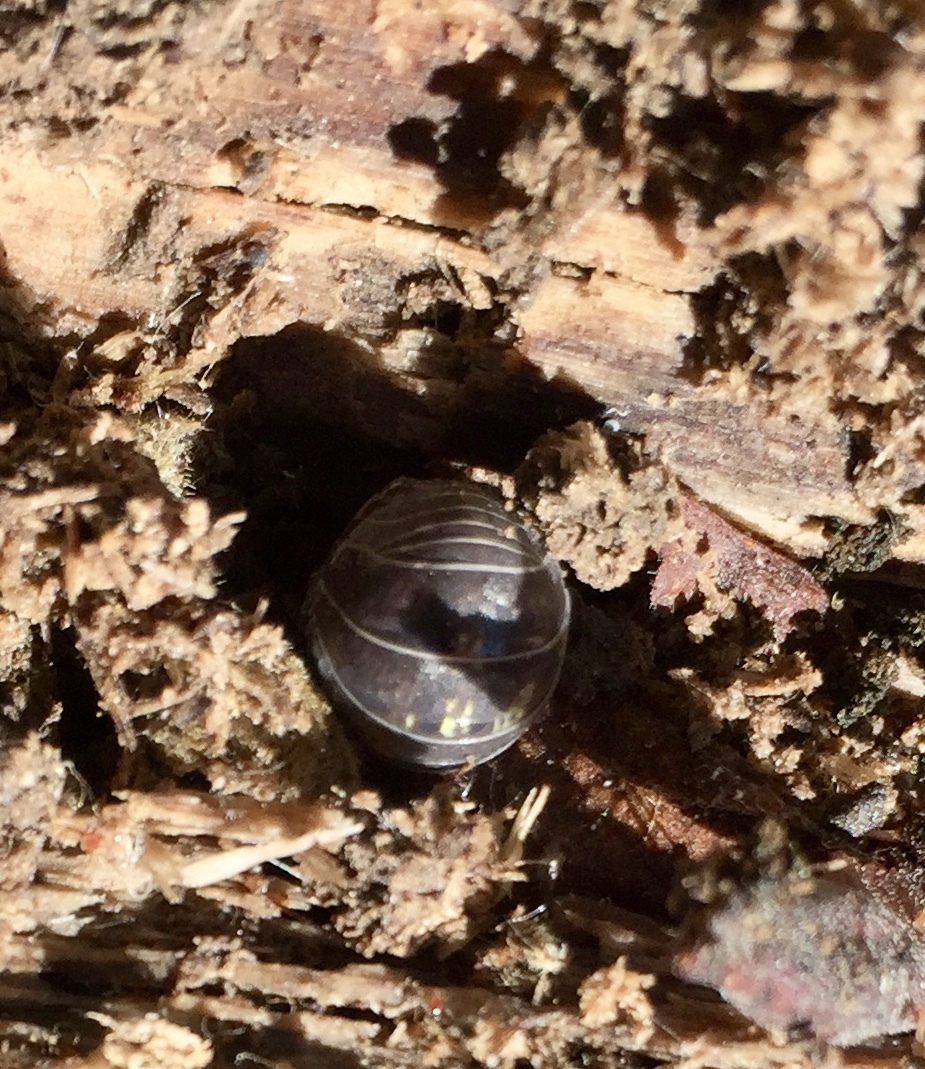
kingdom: Animalia
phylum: Arthropoda
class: Malacostraca
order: Isopoda
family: Armadillidiidae
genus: Armadillidium
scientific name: Armadillidium vulgare
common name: Common pill woodlouse
